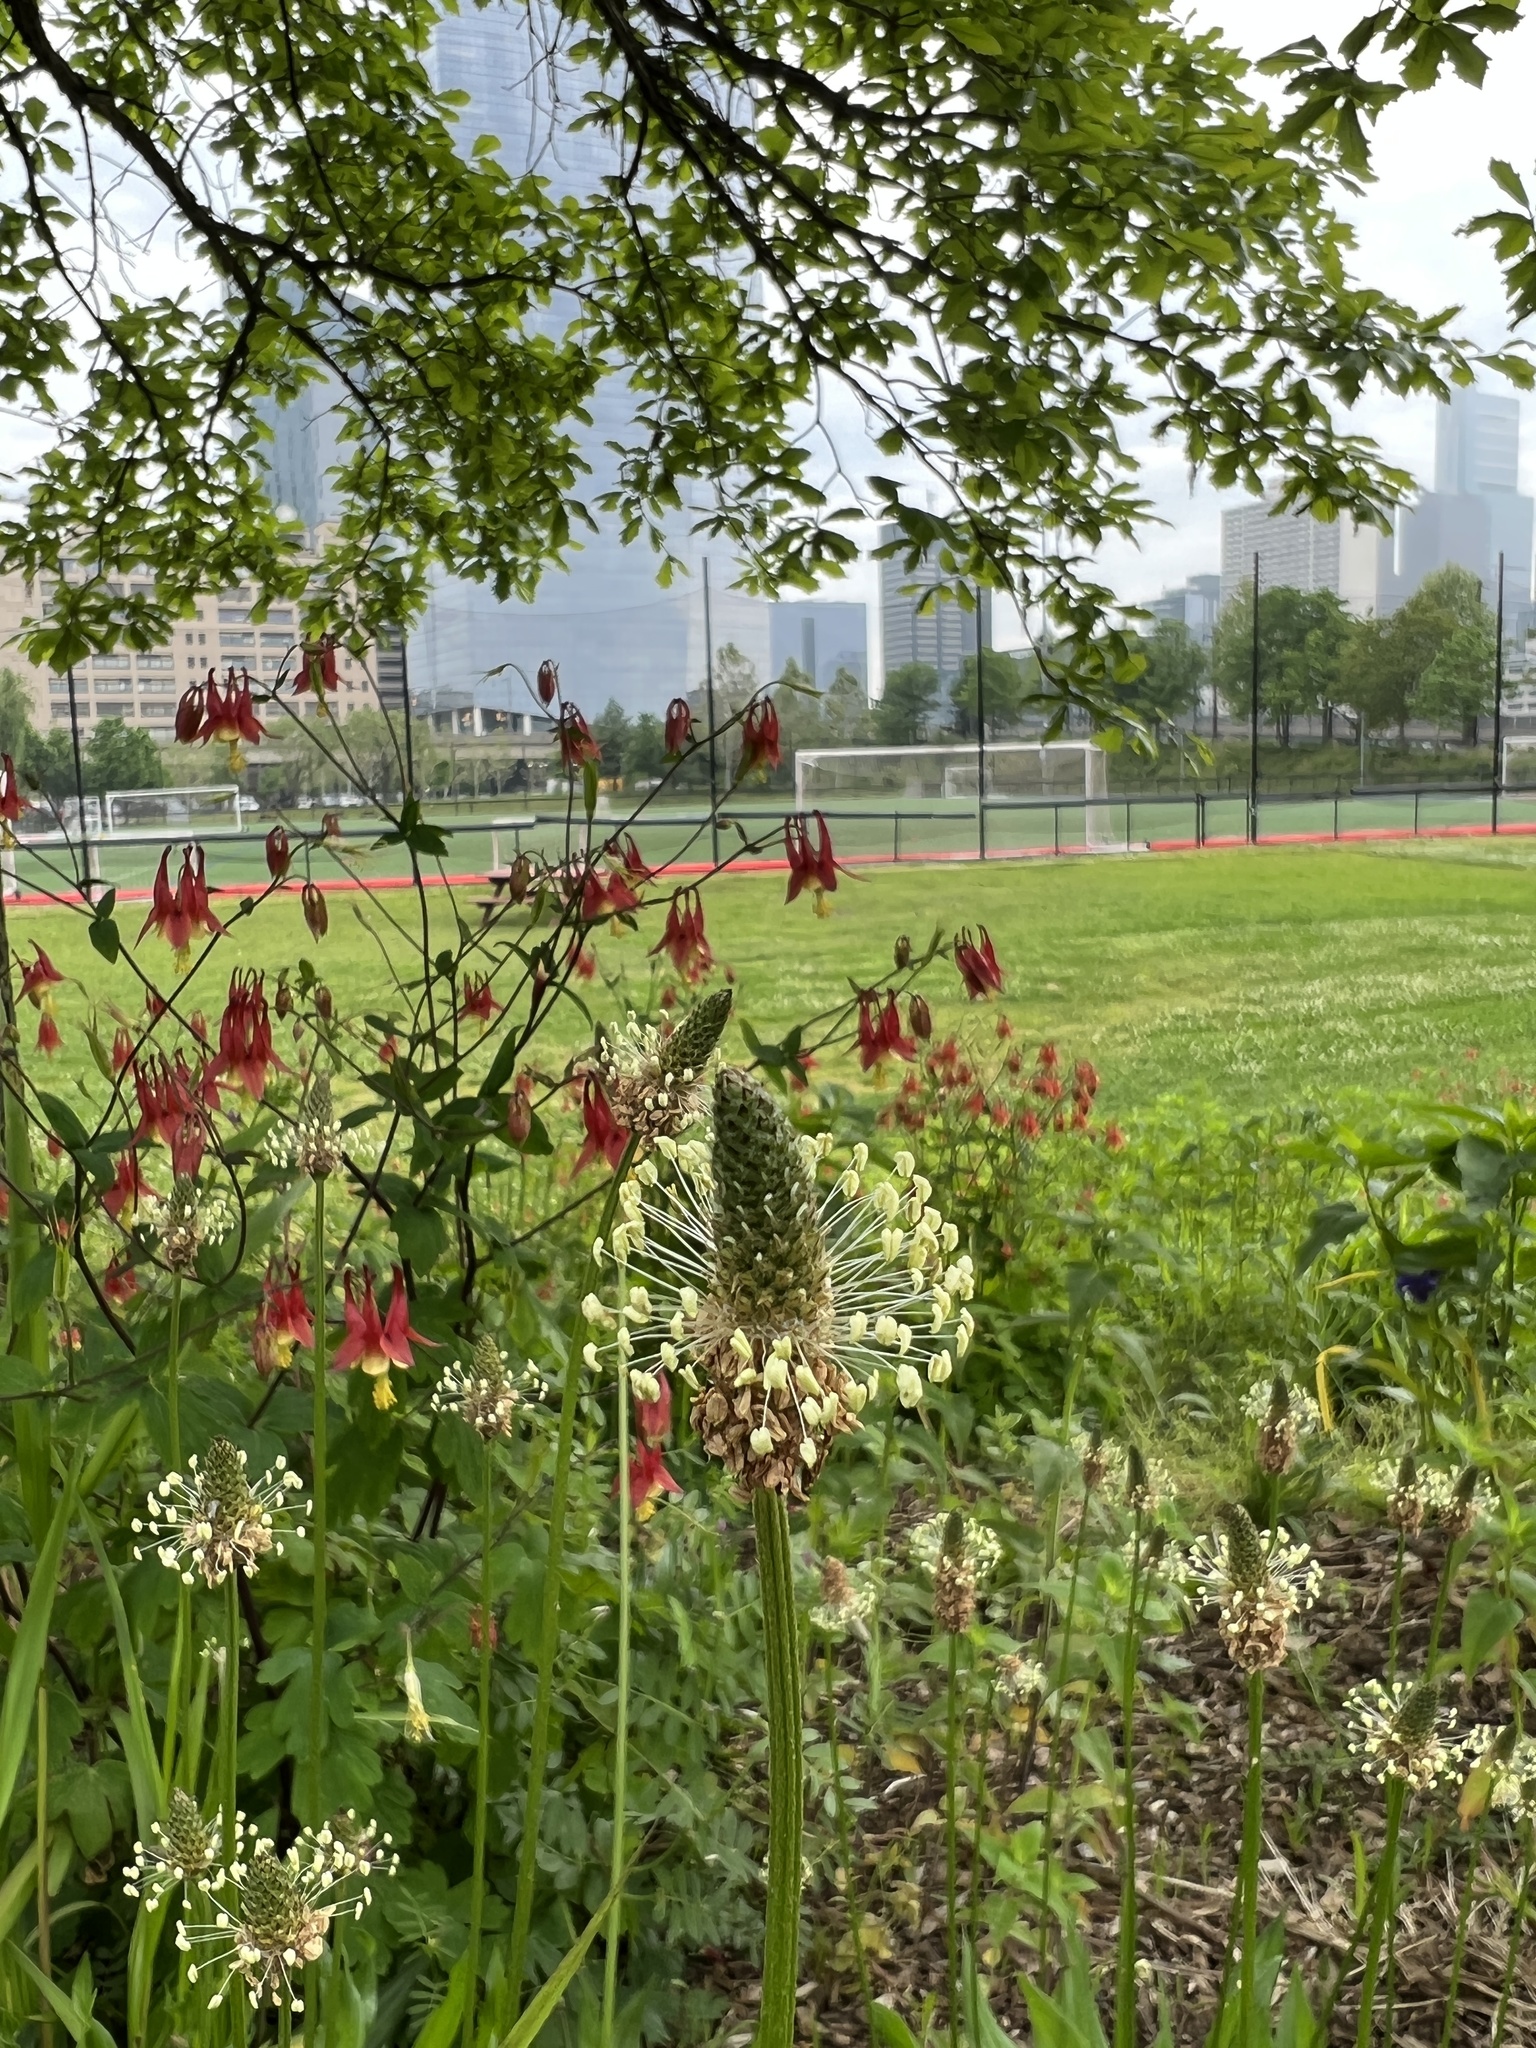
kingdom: Plantae
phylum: Tracheophyta
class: Magnoliopsida
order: Lamiales
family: Plantaginaceae
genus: Plantago
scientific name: Plantago lanceolata
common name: Ribwort plantain
